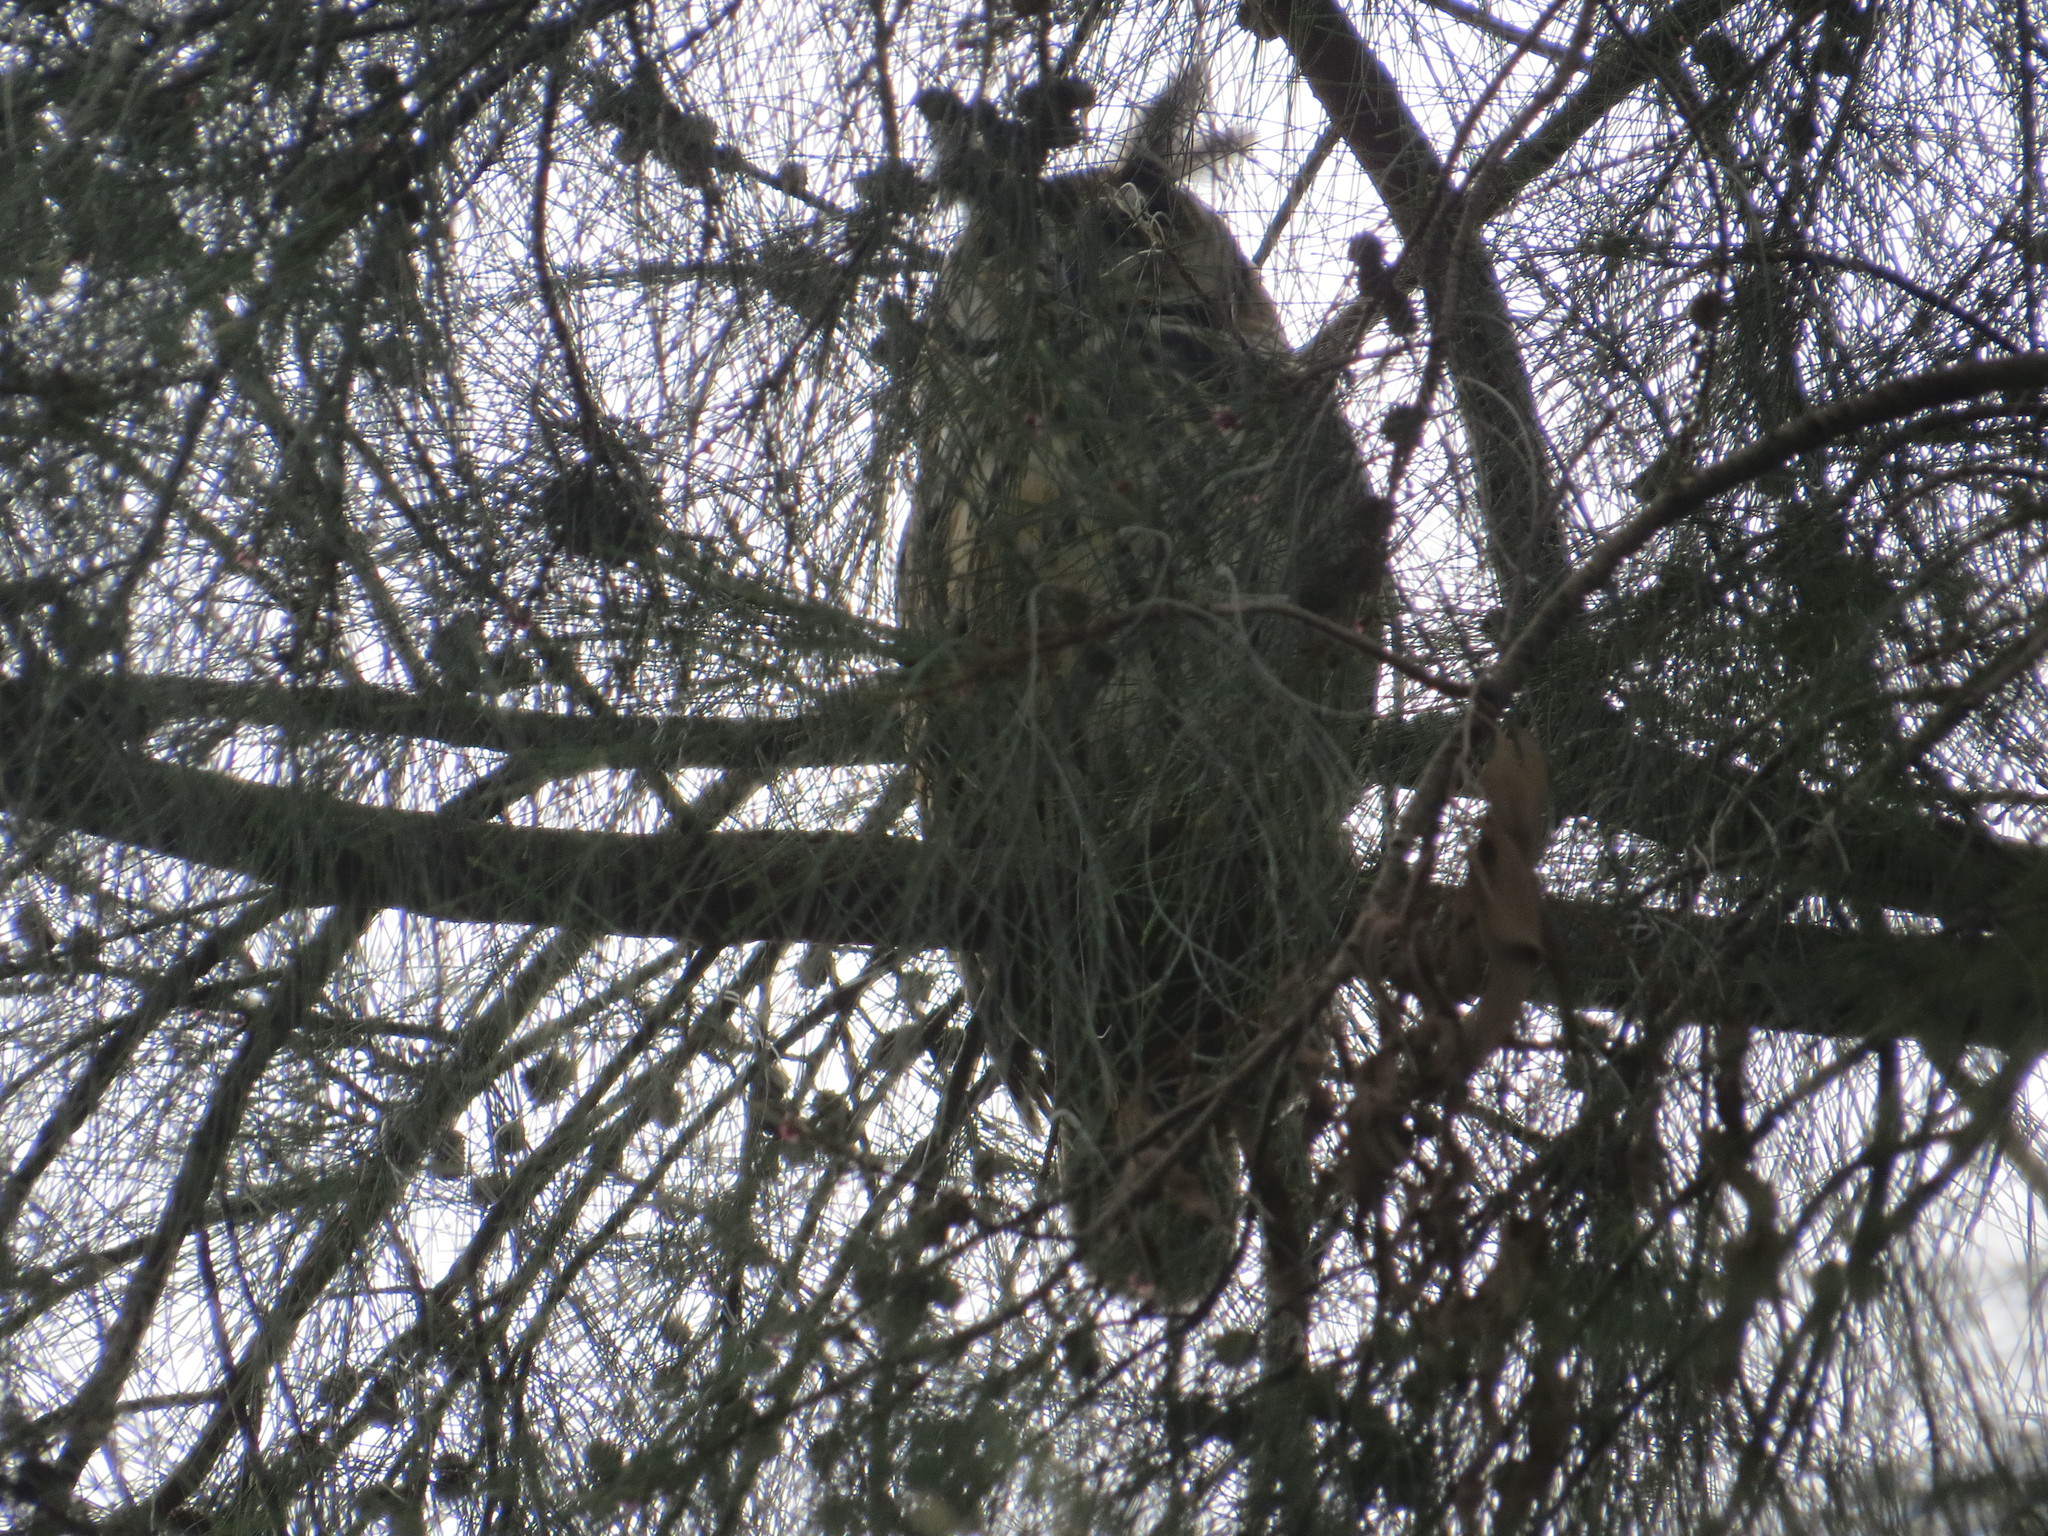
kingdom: Animalia
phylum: Chordata
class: Aves
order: Strigiformes
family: Strigidae
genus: Pseudoscops
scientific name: Pseudoscops clamator
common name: Striped owl
